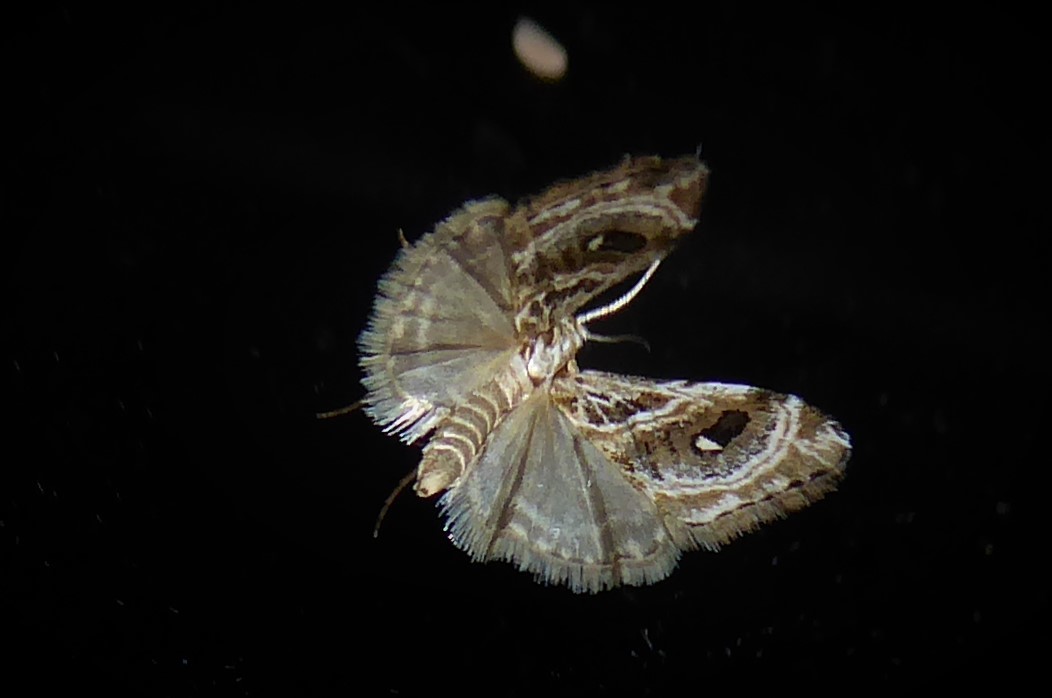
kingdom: Animalia
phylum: Arthropoda
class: Insecta
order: Lepidoptera
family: Crambidae
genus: Gadira
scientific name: Gadira acerella
